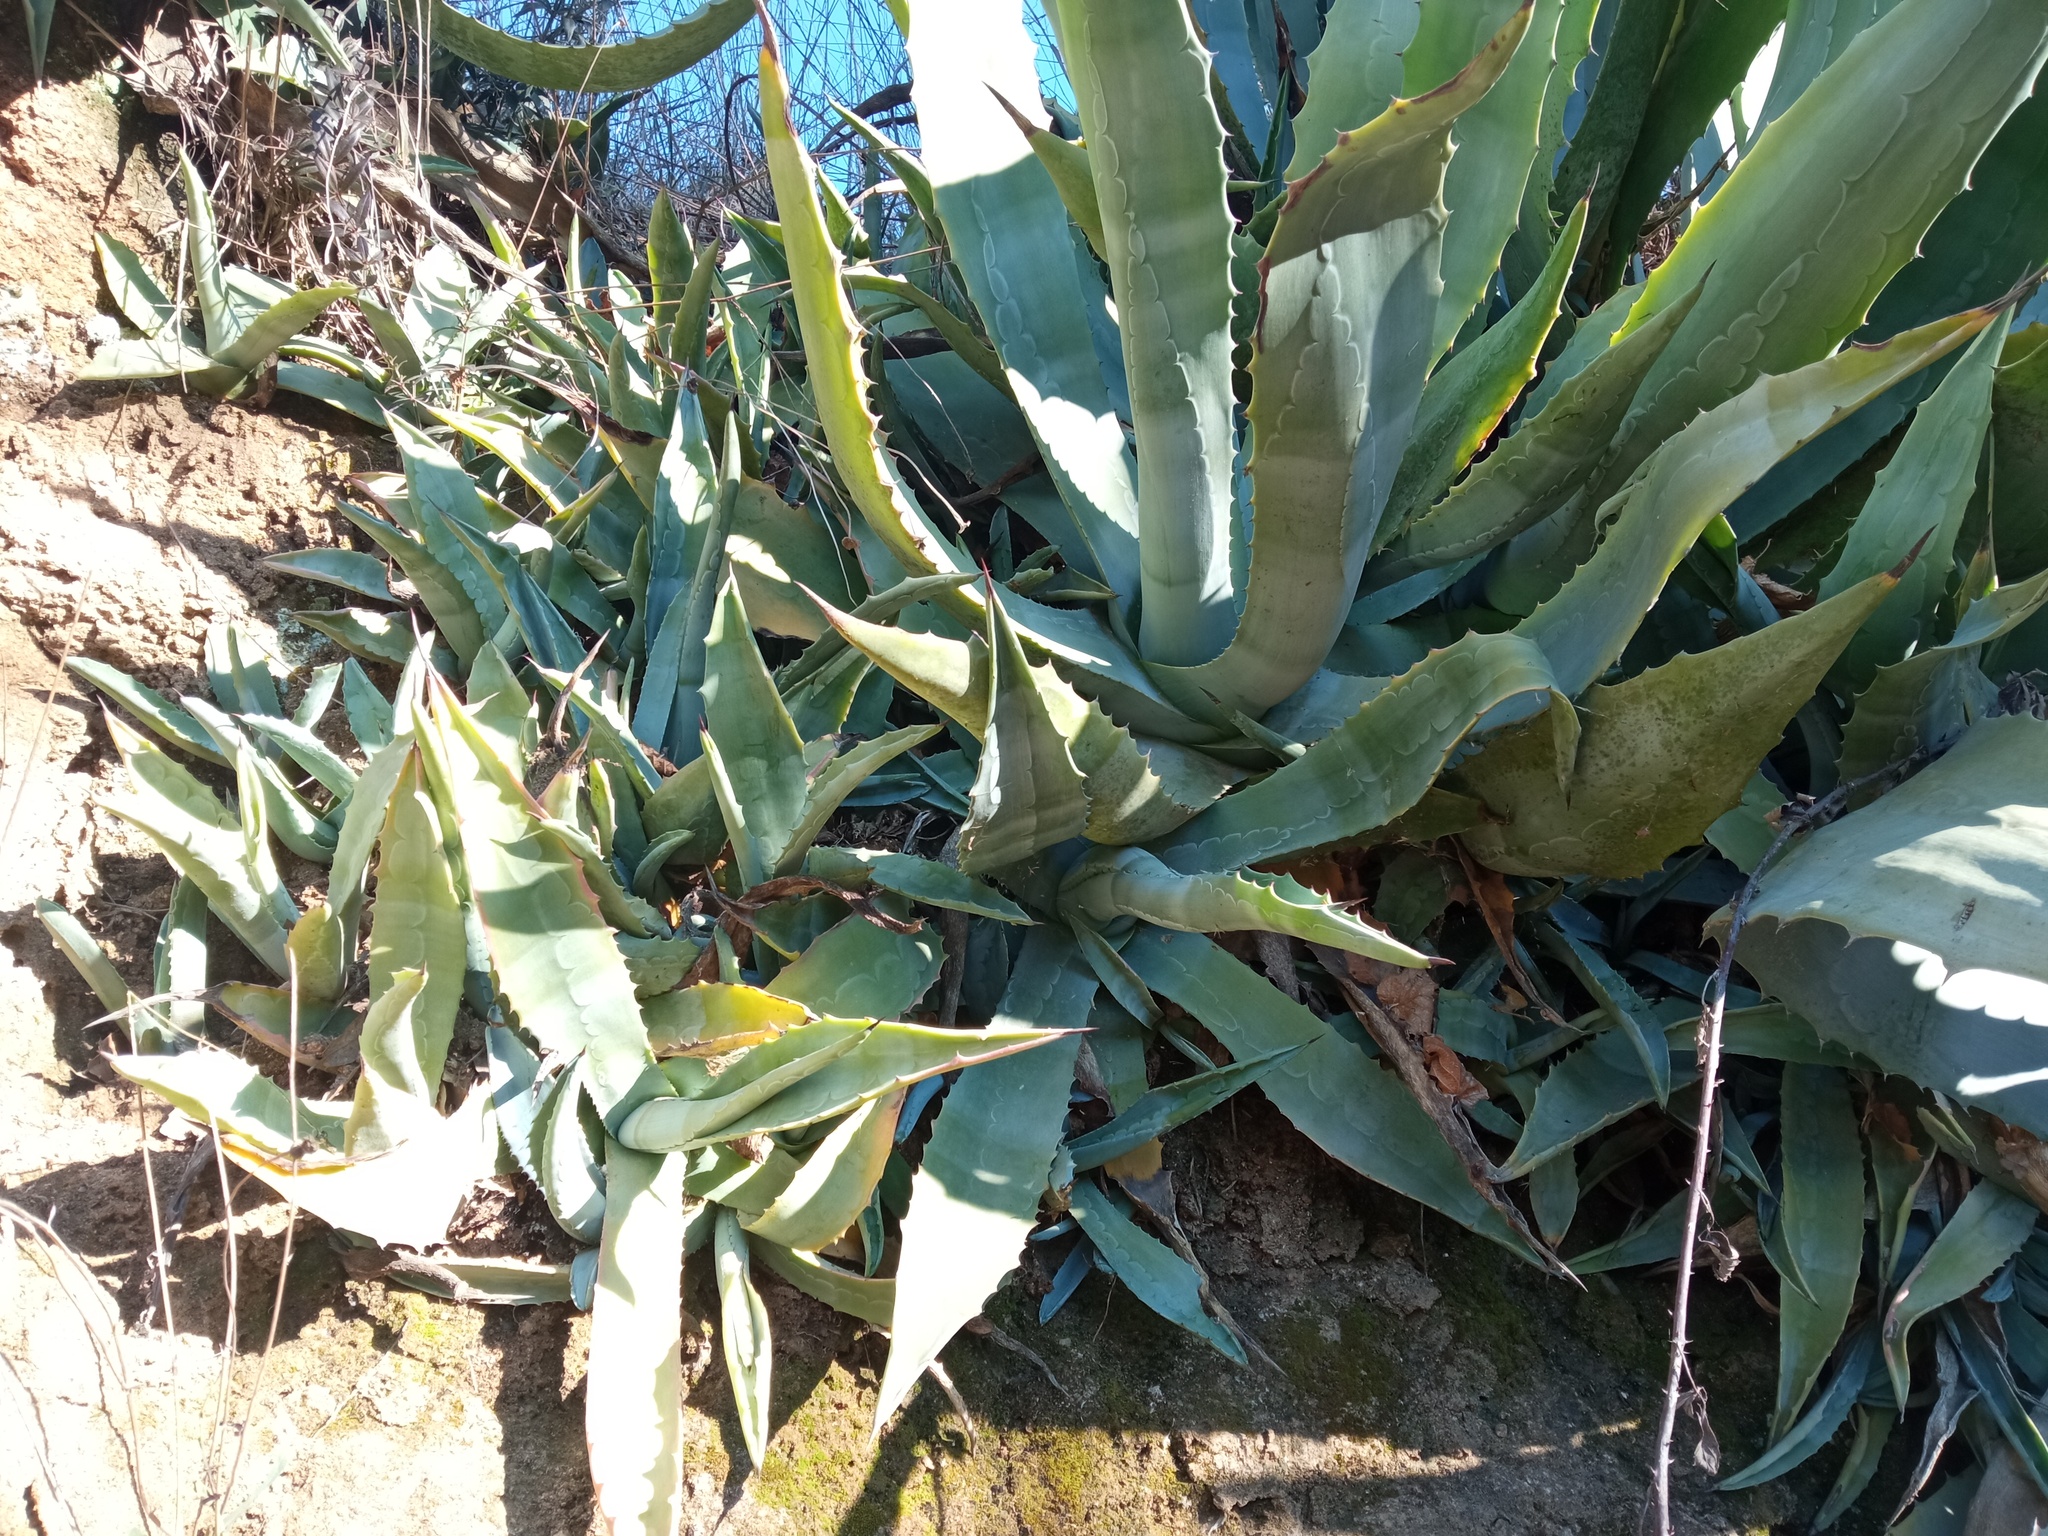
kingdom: Plantae
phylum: Tracheophyta
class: Liliopsida
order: Asparagales
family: Asparagaceae
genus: Agave
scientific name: Agave americana
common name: Centuryplant
